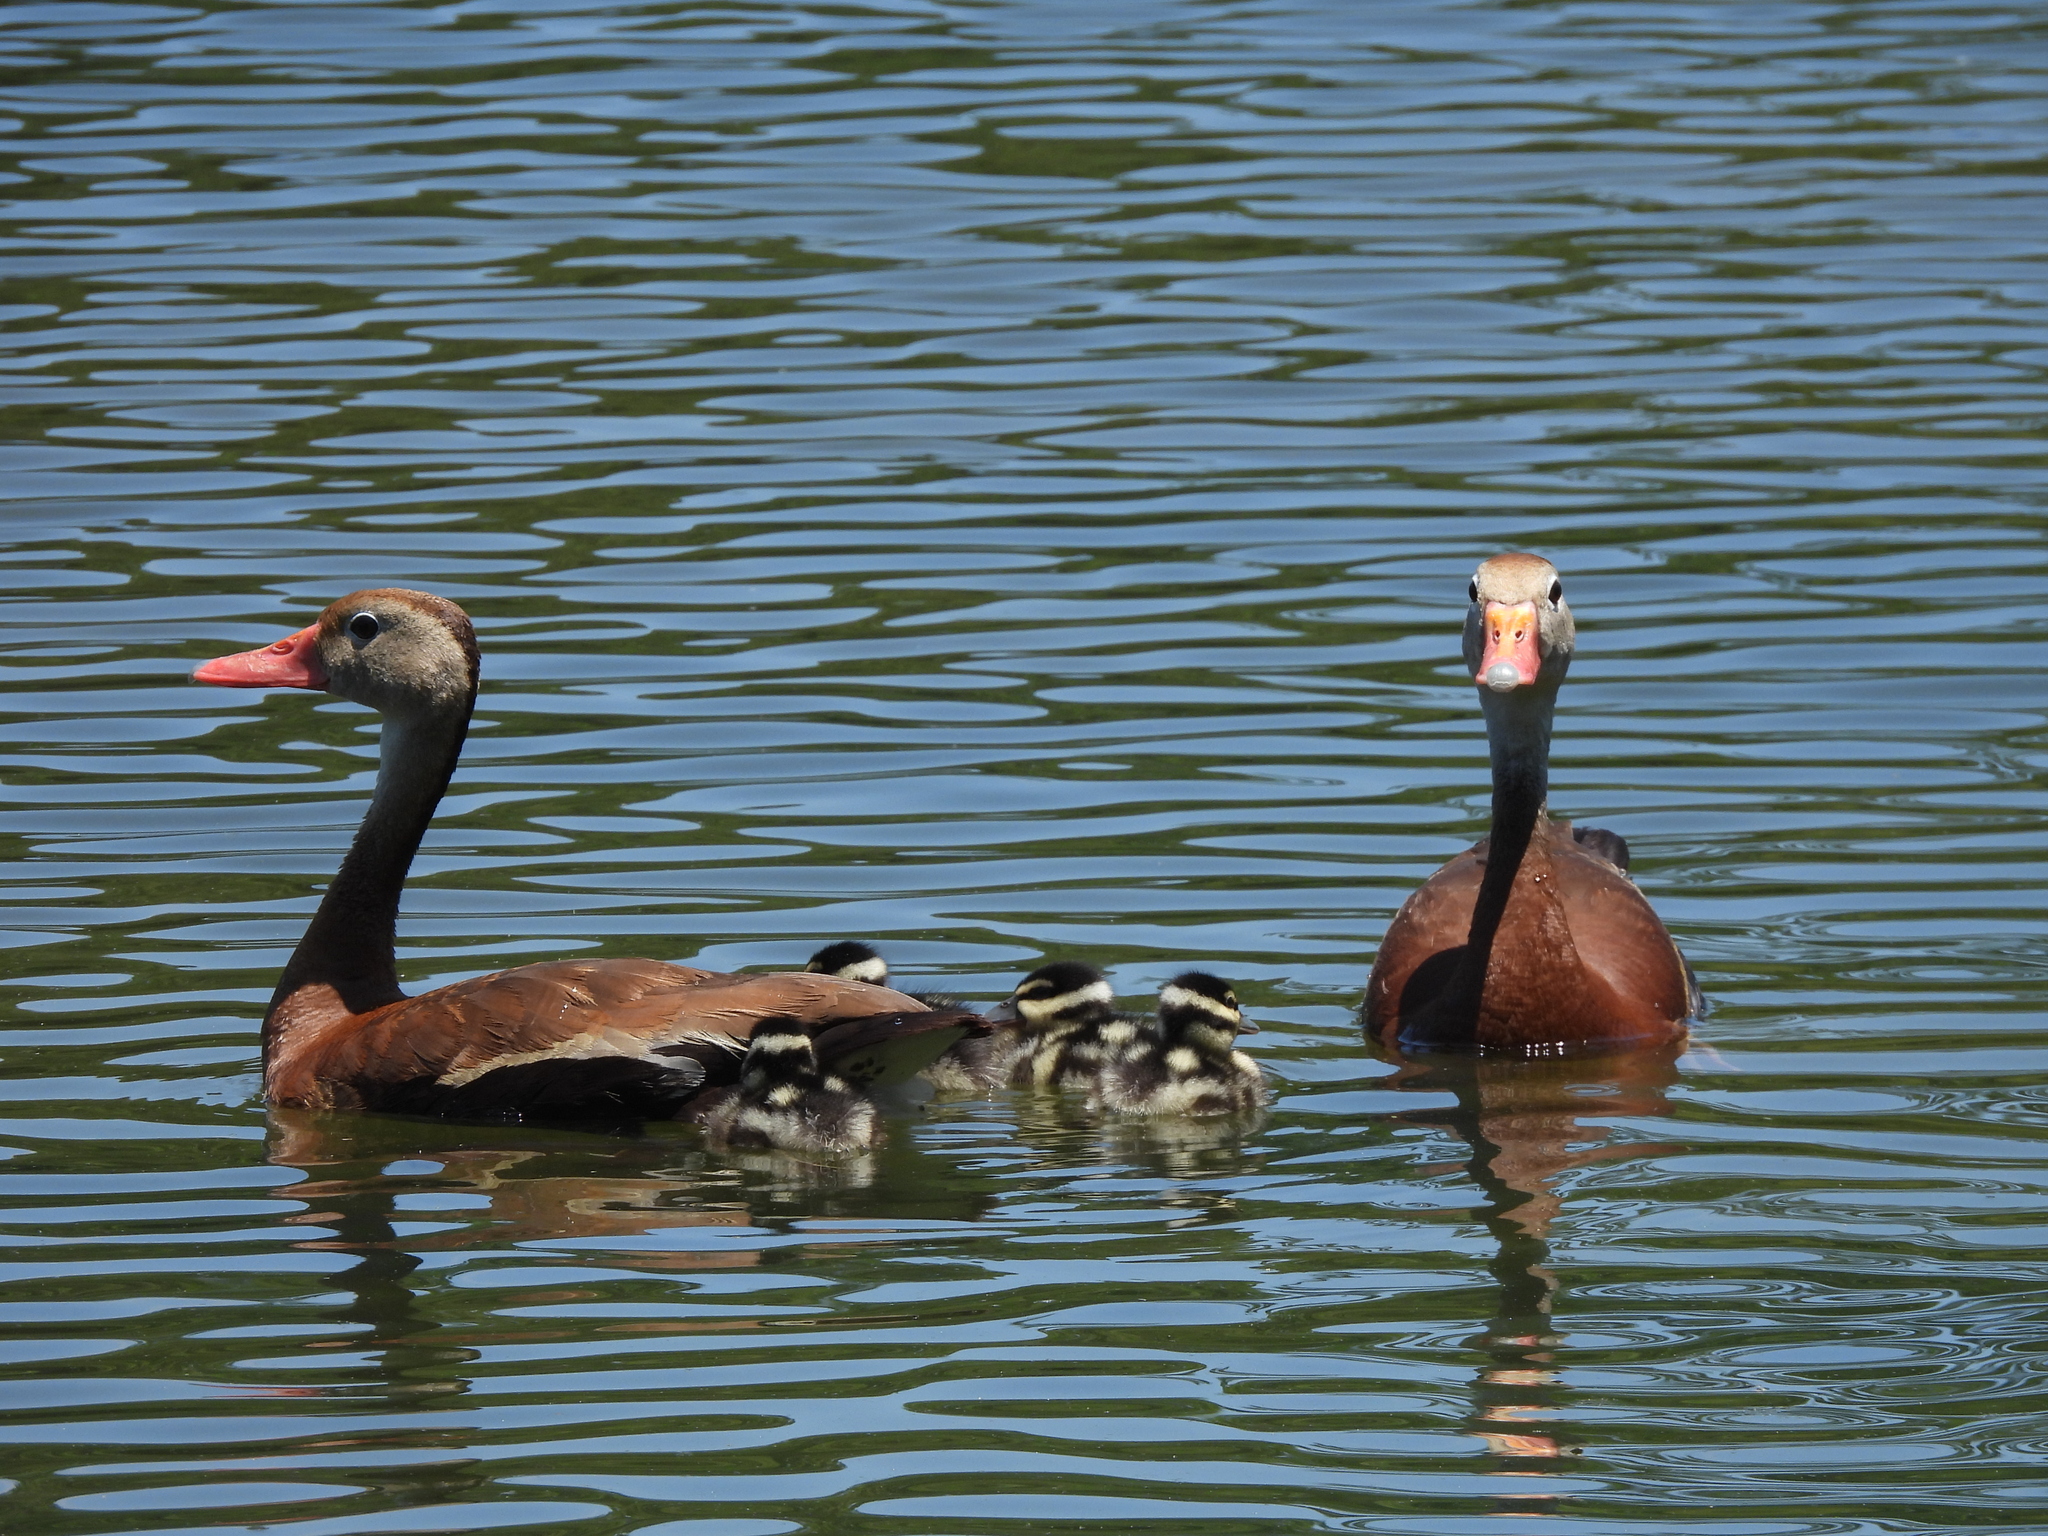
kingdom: Animalia
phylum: Chordata
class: Aves
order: Anseriformes
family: Anatidae
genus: Dendrocygna
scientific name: Dendrocygna autumnalis
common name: Black-bellied whistling duck
